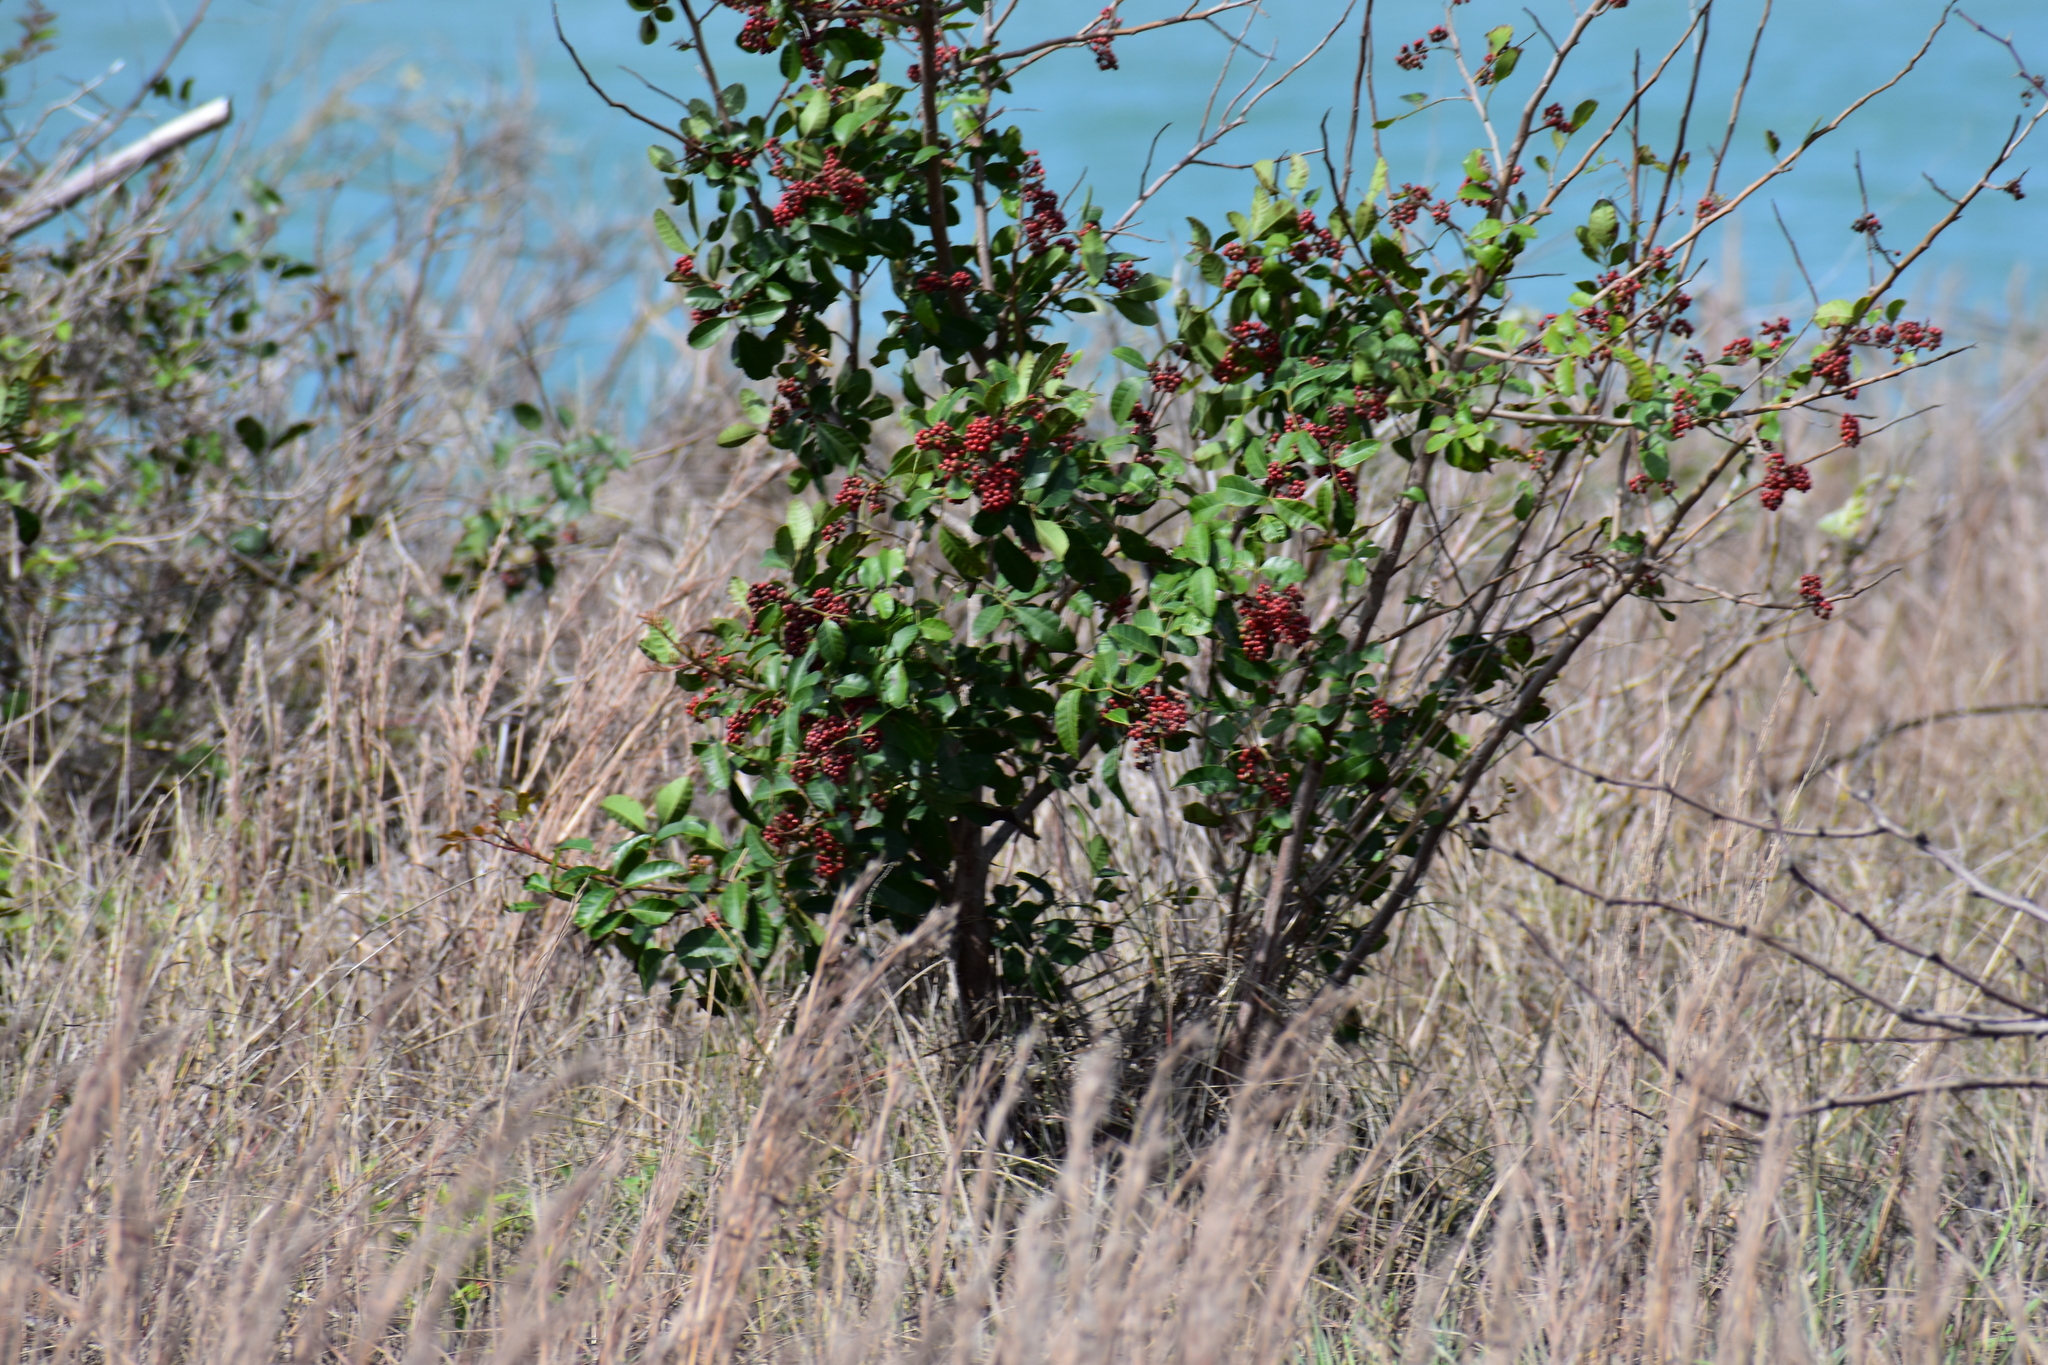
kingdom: Plantae
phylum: Tracheophyta
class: Magnoliopsida
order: Sapindales
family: Anacardiaceae
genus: Schinus
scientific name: Schinus terebinthifolia
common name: Brazilian peppertree
